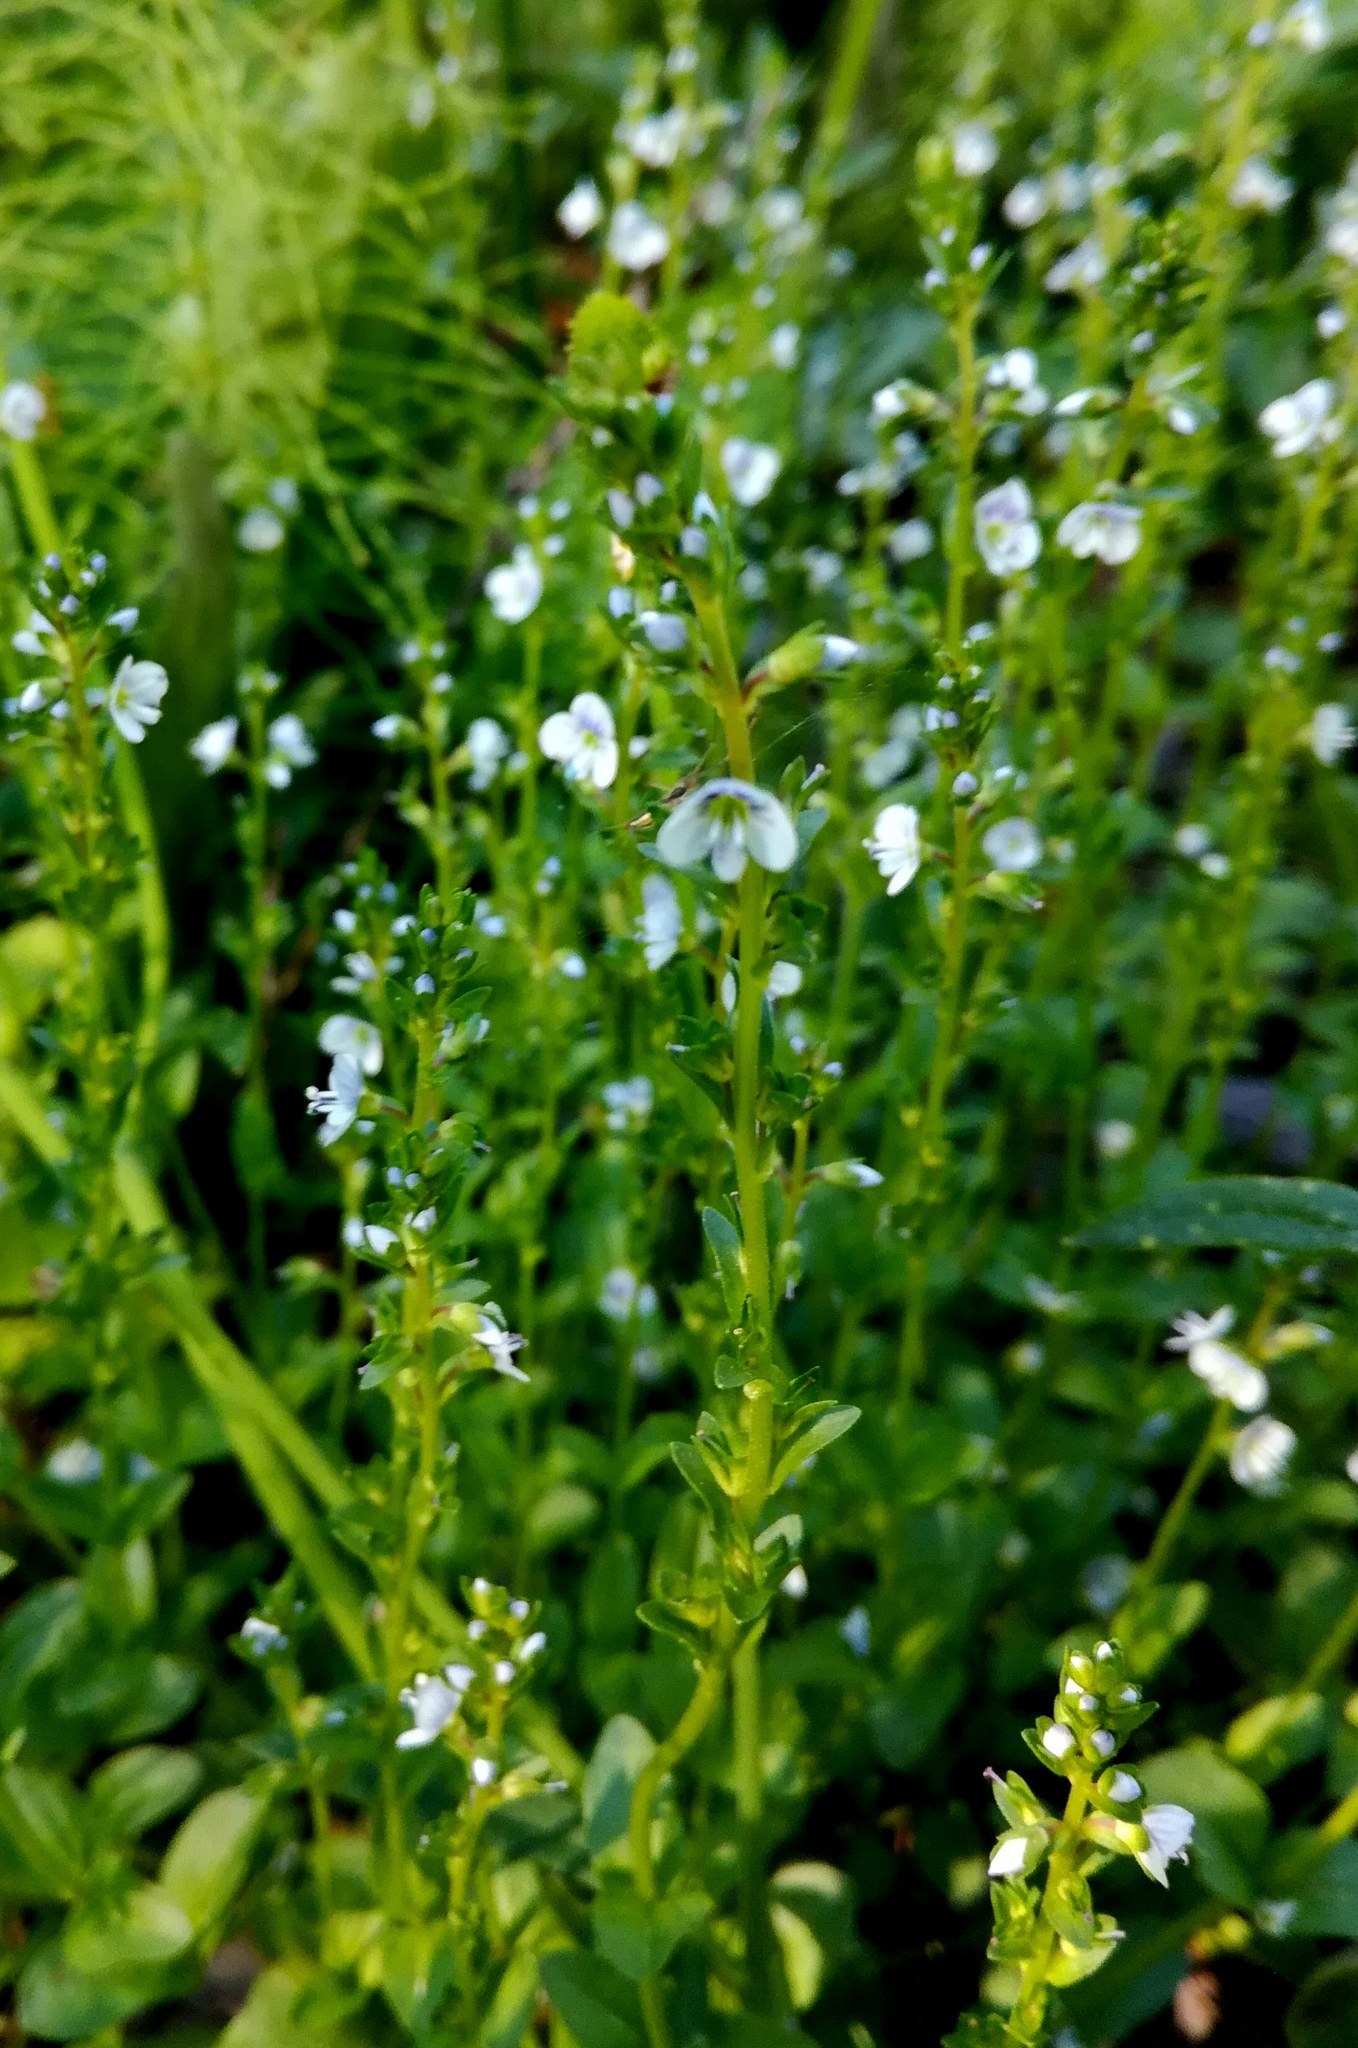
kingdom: Plantae
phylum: Tracheophyta
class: Magnoliopsida
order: Lamiales
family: Plantaginaceae
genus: Veronica
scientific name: Veronica serpyllifolia
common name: Thyme-leaved speedwell
